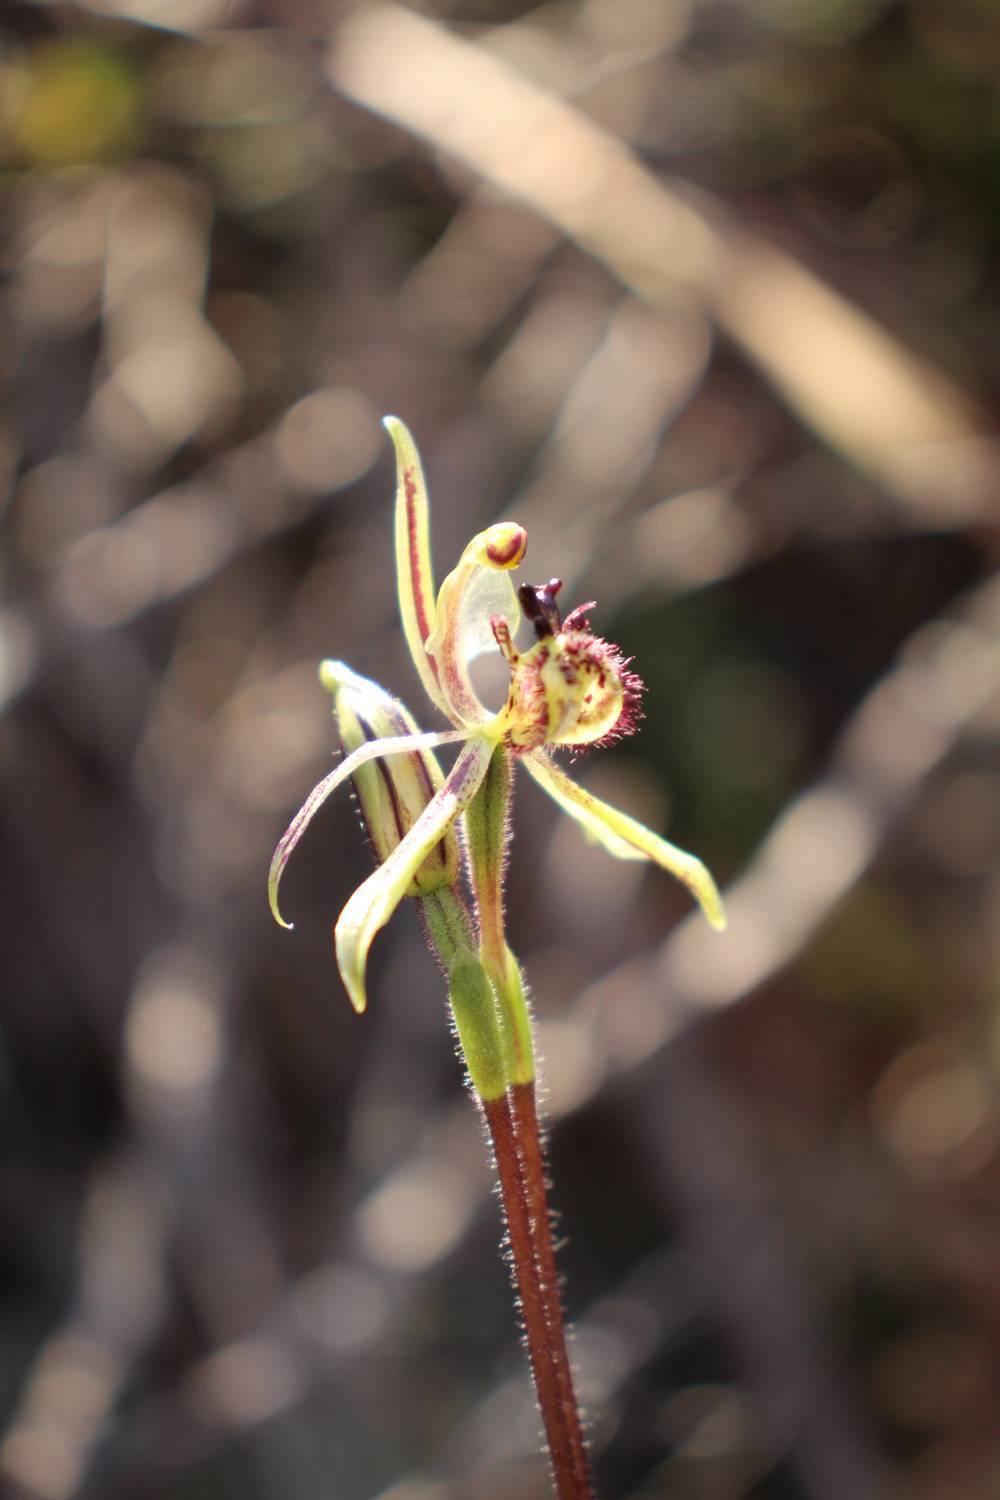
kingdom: Plantae
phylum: Tracheophyta
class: Liliopsida
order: Asparagales
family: Orchidaceae
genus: Caladenia
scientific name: Caladenia barbarossa
